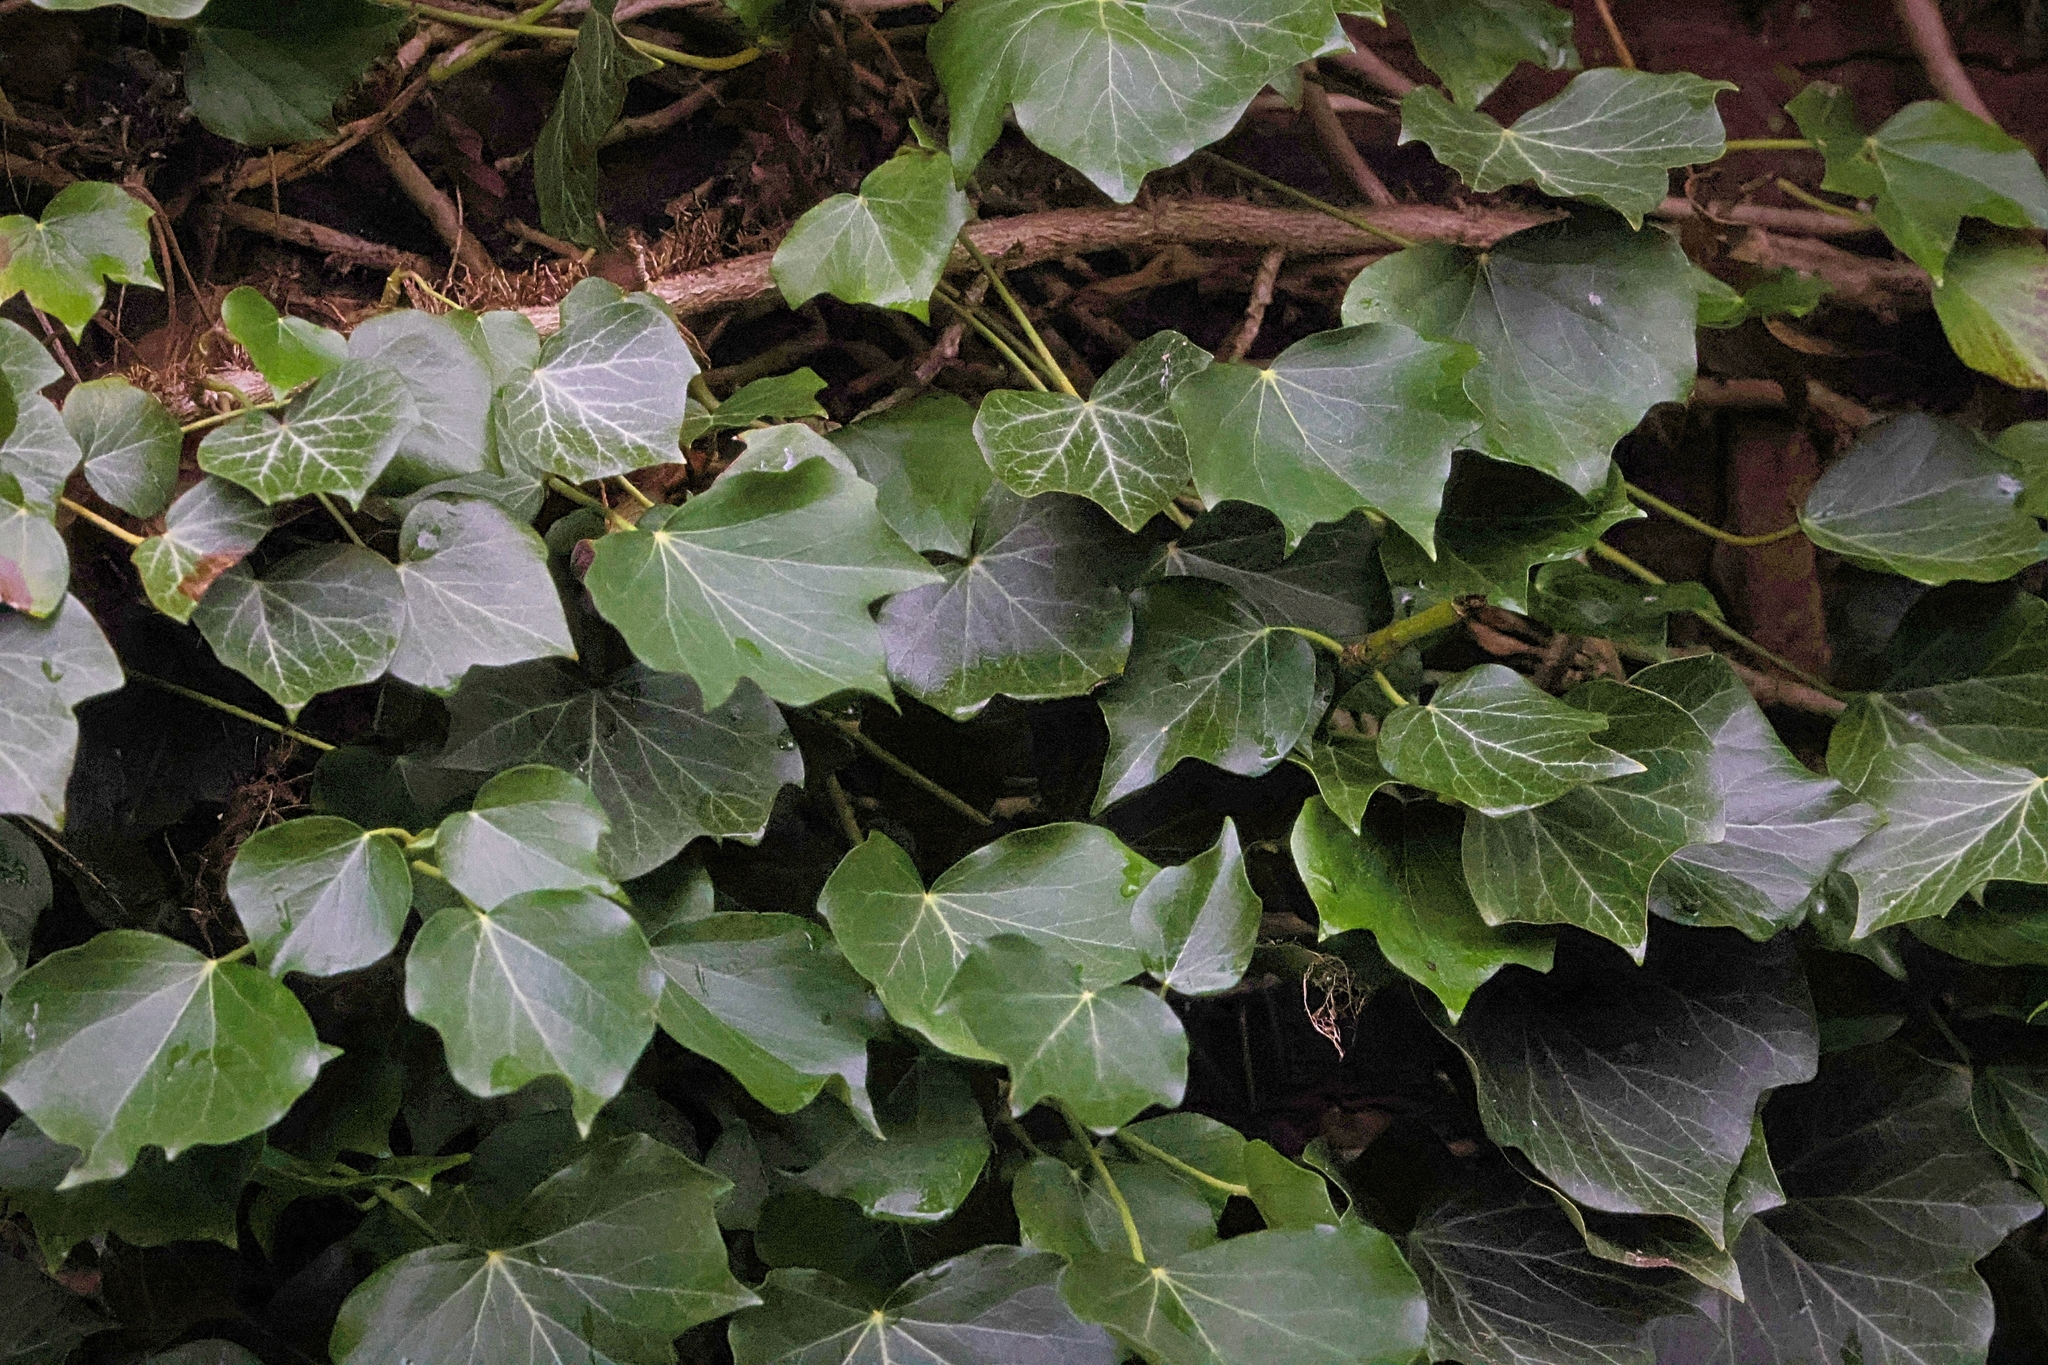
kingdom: Plantae
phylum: Tracheophyta
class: Magnoliopsida
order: Apiales
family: Araliaceae
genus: Hedera
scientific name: Hedera helix
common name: Ivy
